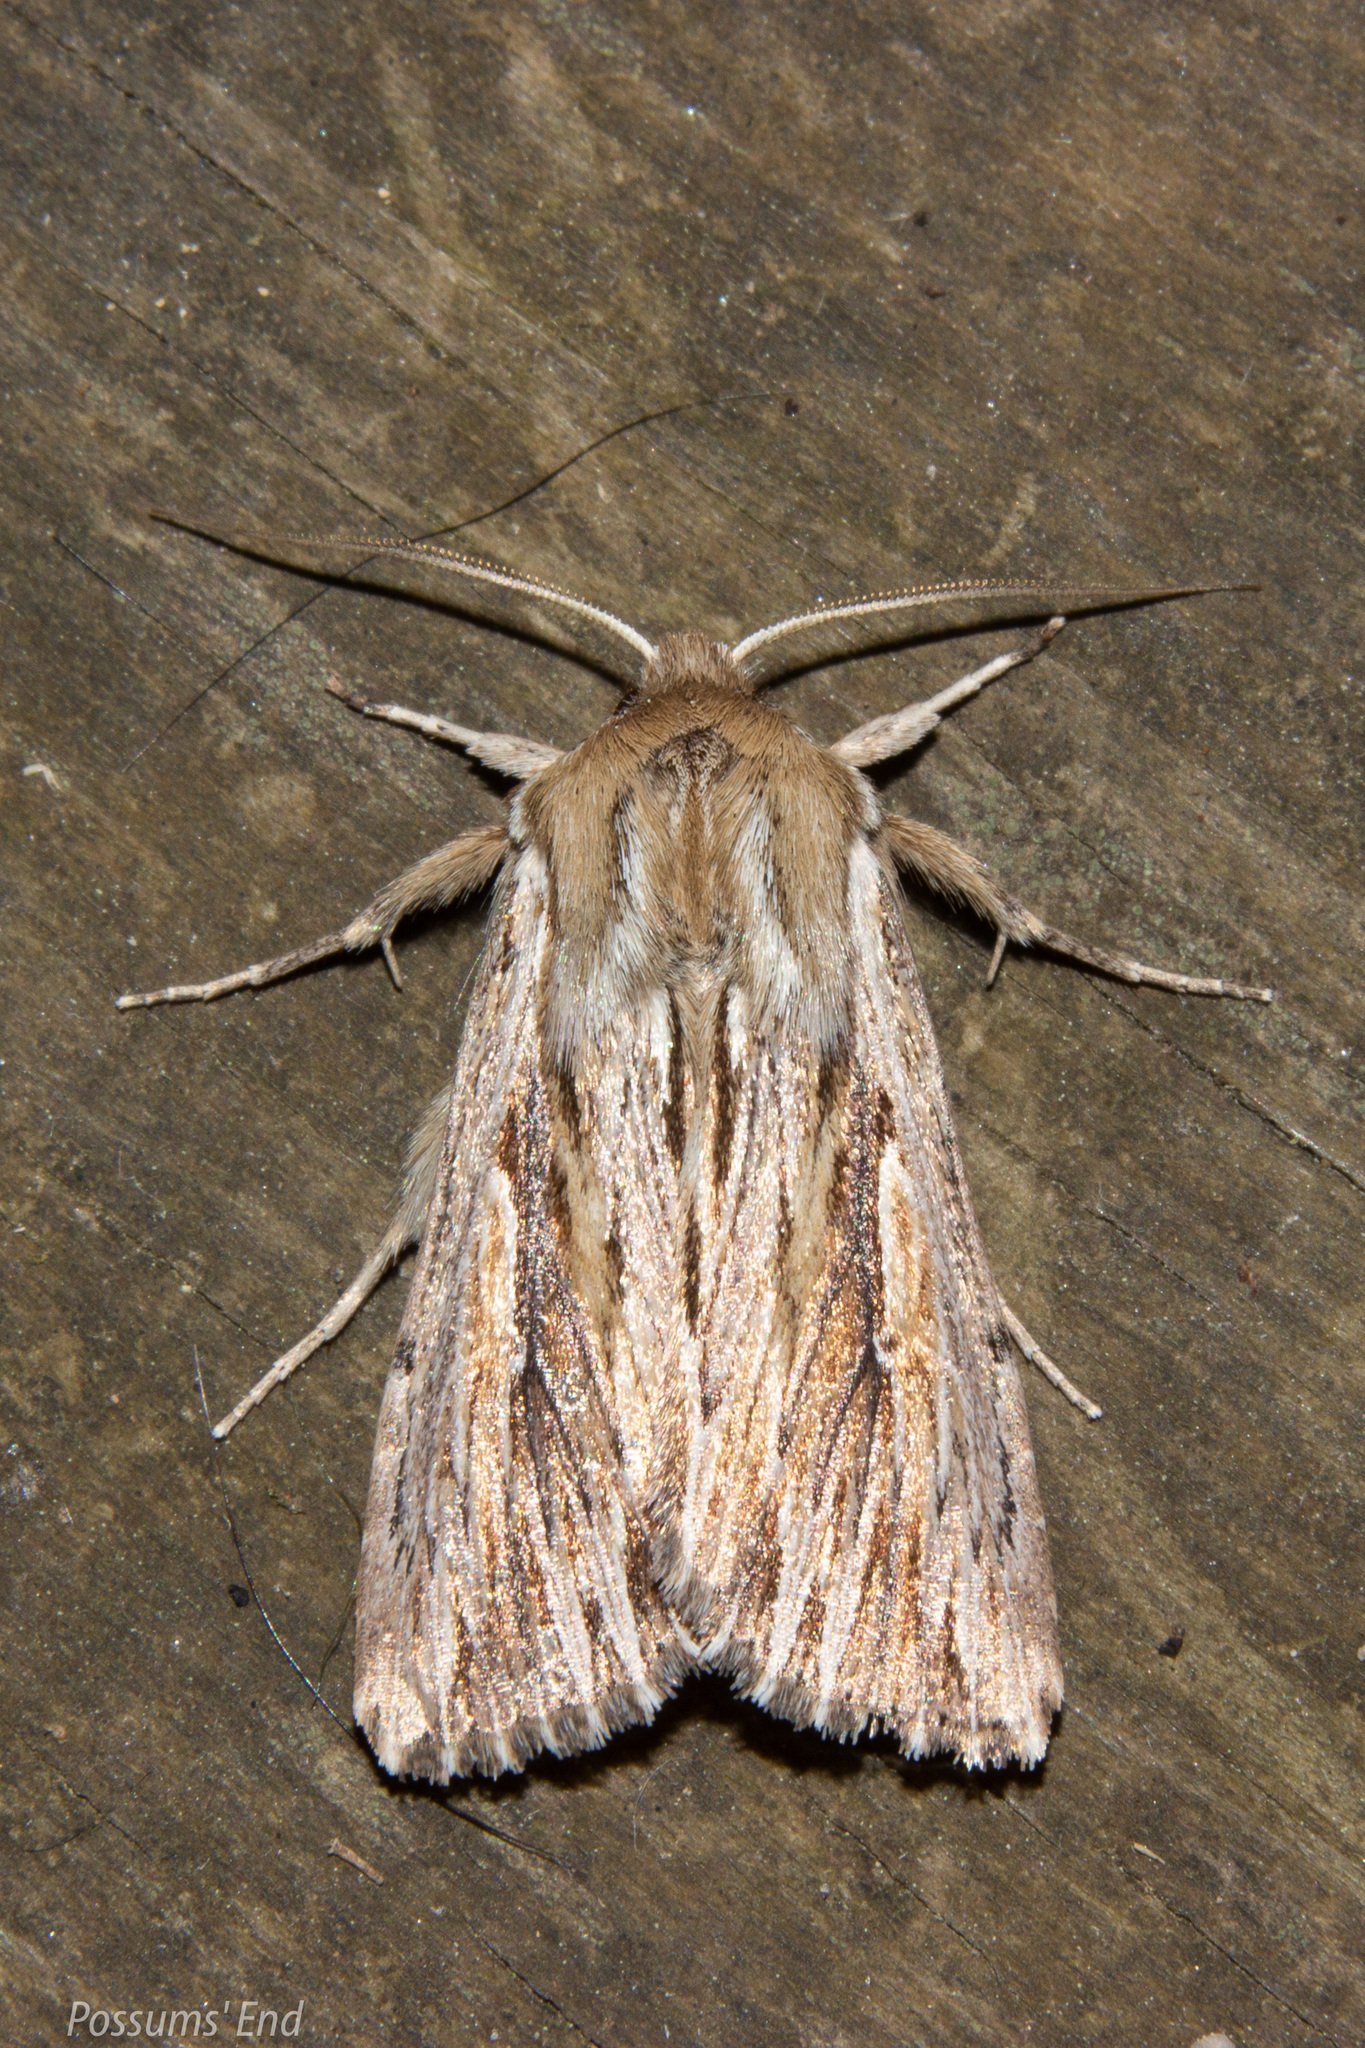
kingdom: Animalia
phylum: Arthropoda
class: Insecta
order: Lepidoptera
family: Noctuidae
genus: Persectania
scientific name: Persectania aversa
